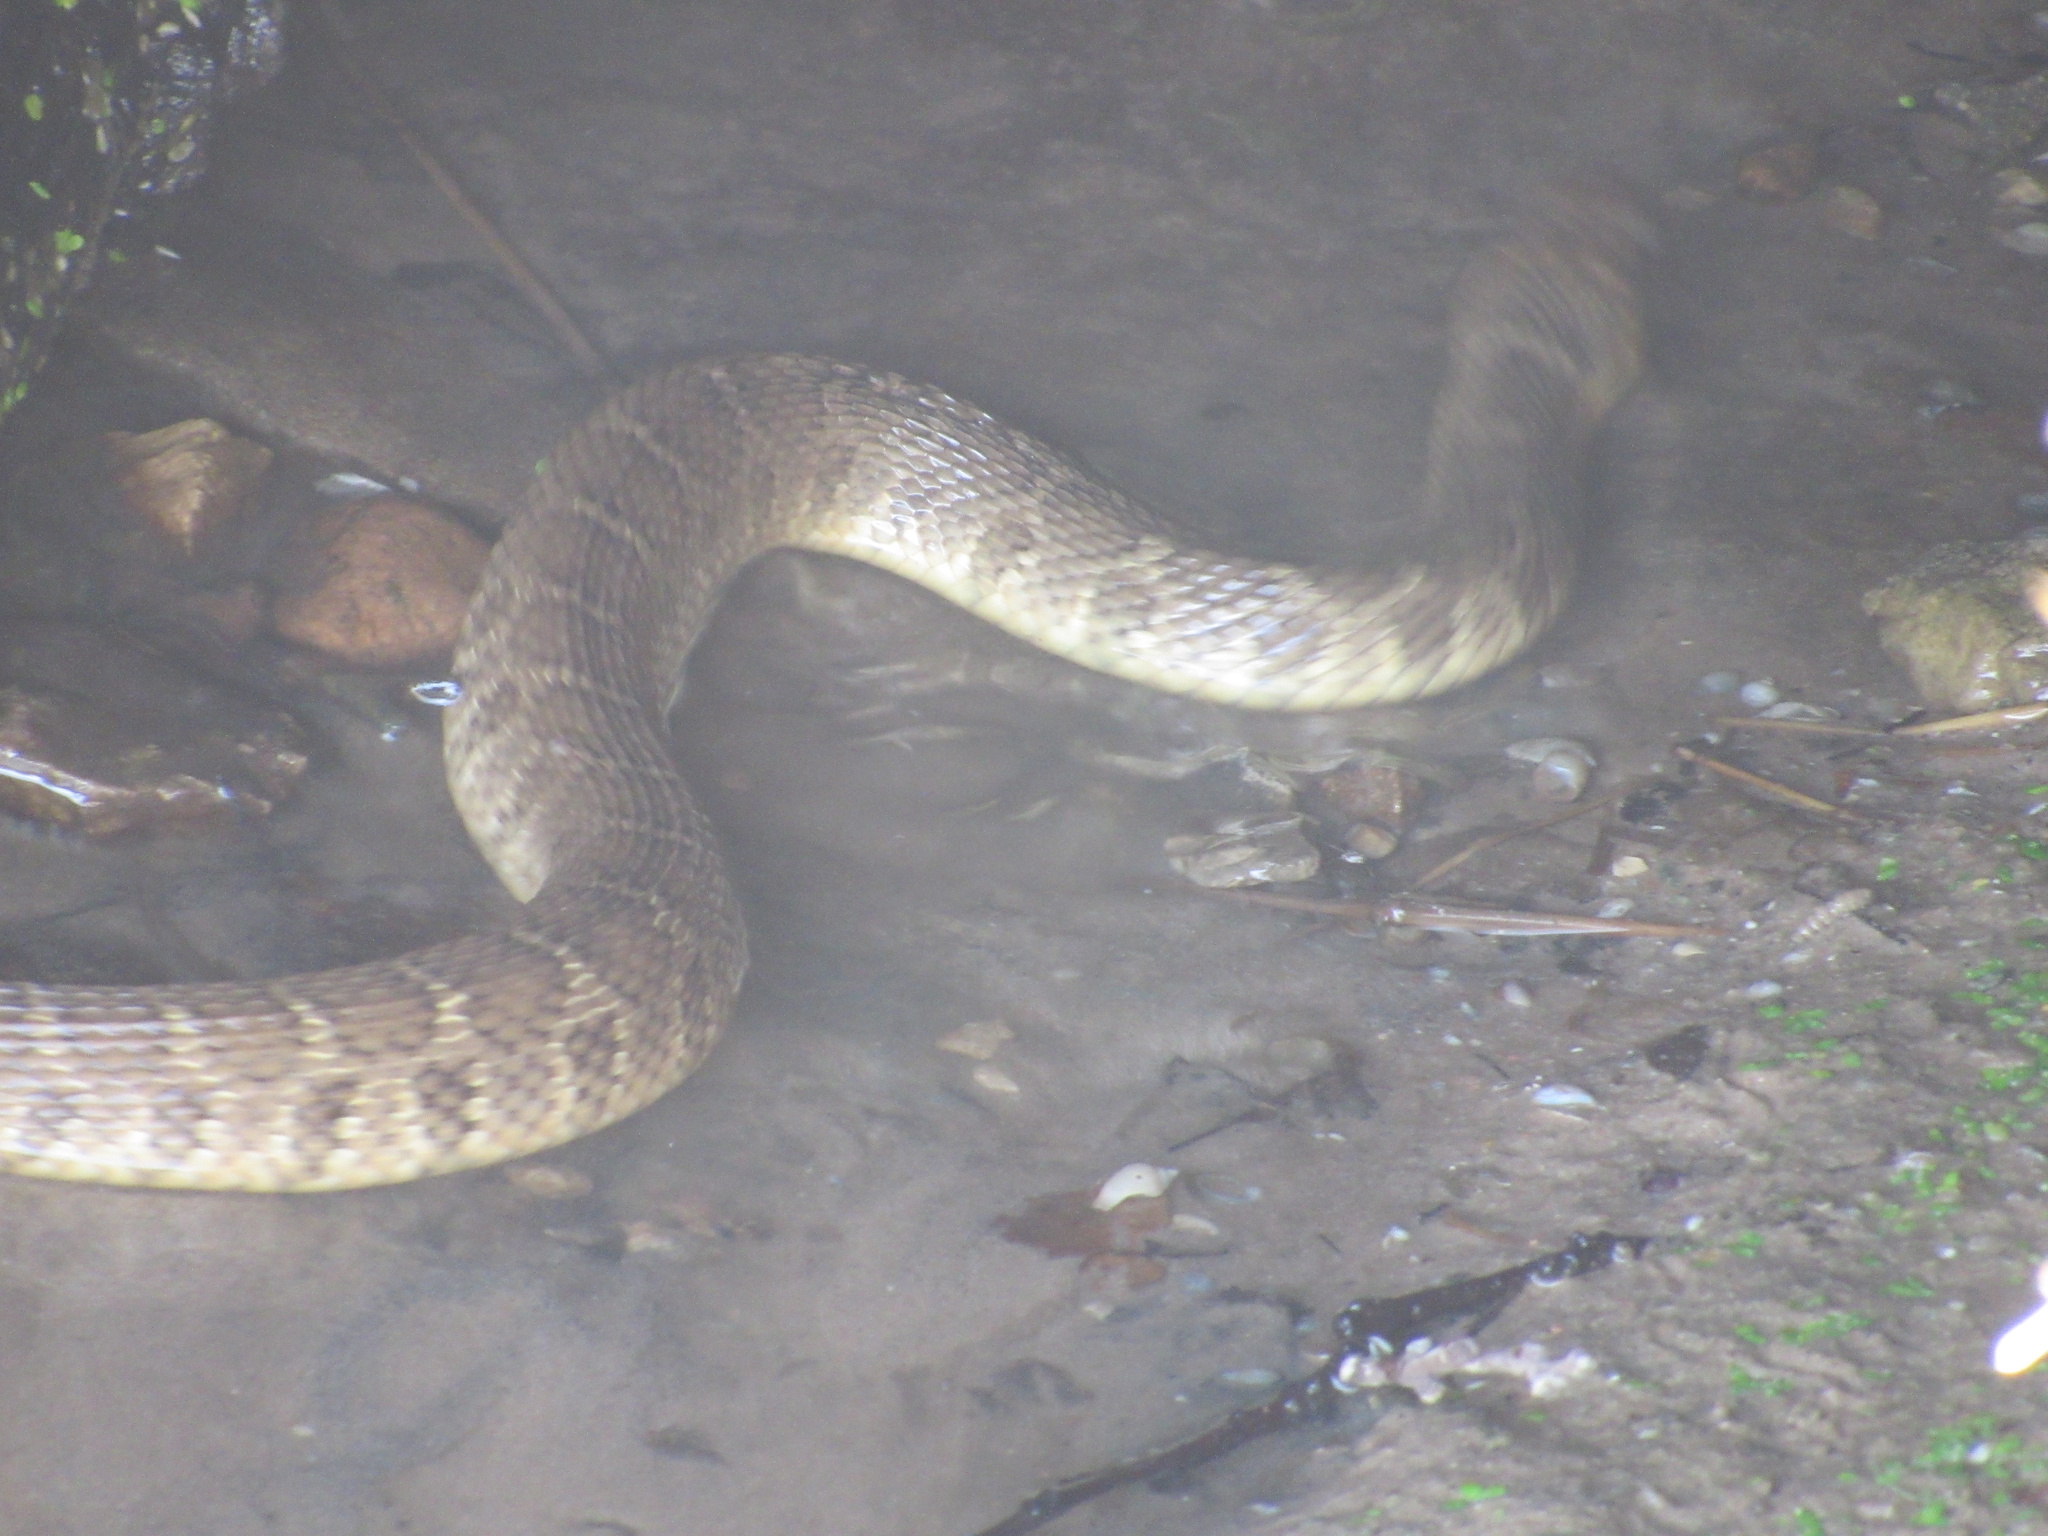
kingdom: Animalia
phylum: Chordata
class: Squamata
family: Colubridae
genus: Nerodia
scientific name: Nerodia erythrogaster
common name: Plainbelly water snake
